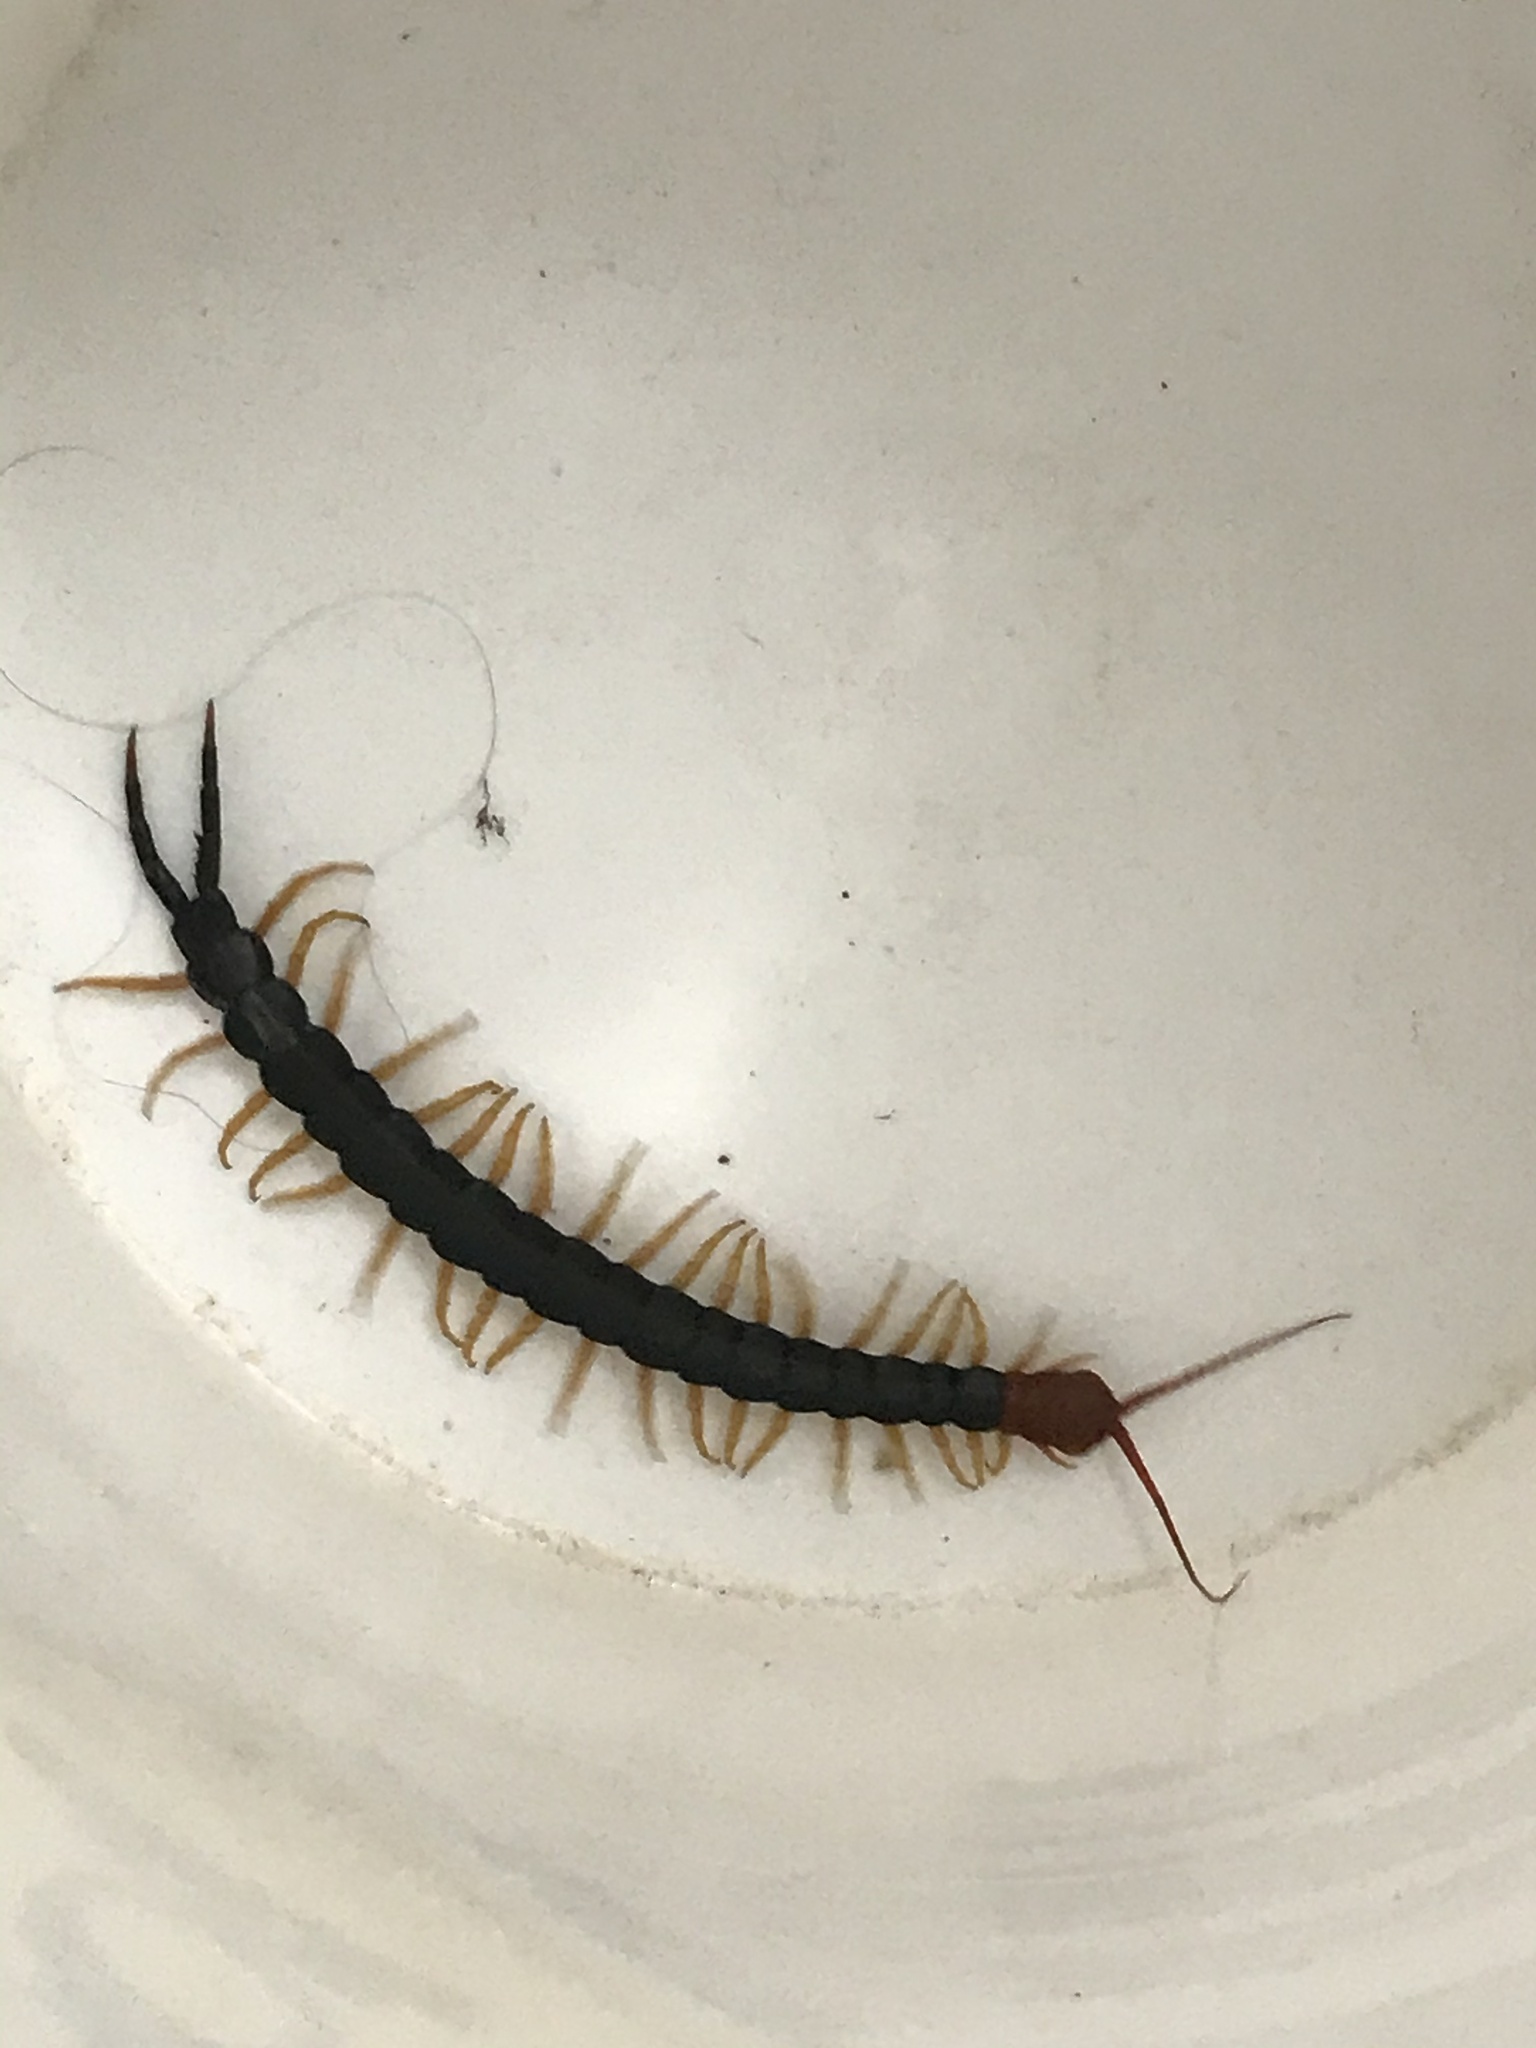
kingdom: Animalia
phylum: Arthropoda
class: Chilopoda
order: Scolopendromorpha
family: Scolopendridae
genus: Scolopendra
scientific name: Scolopendra heros
